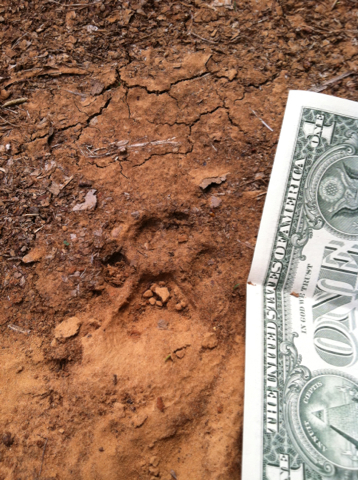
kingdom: Animalia
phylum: Chordata
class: Mammalia
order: Carnivora
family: Felidae
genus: Lynx
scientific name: Lynx rufus
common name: Bobcat
